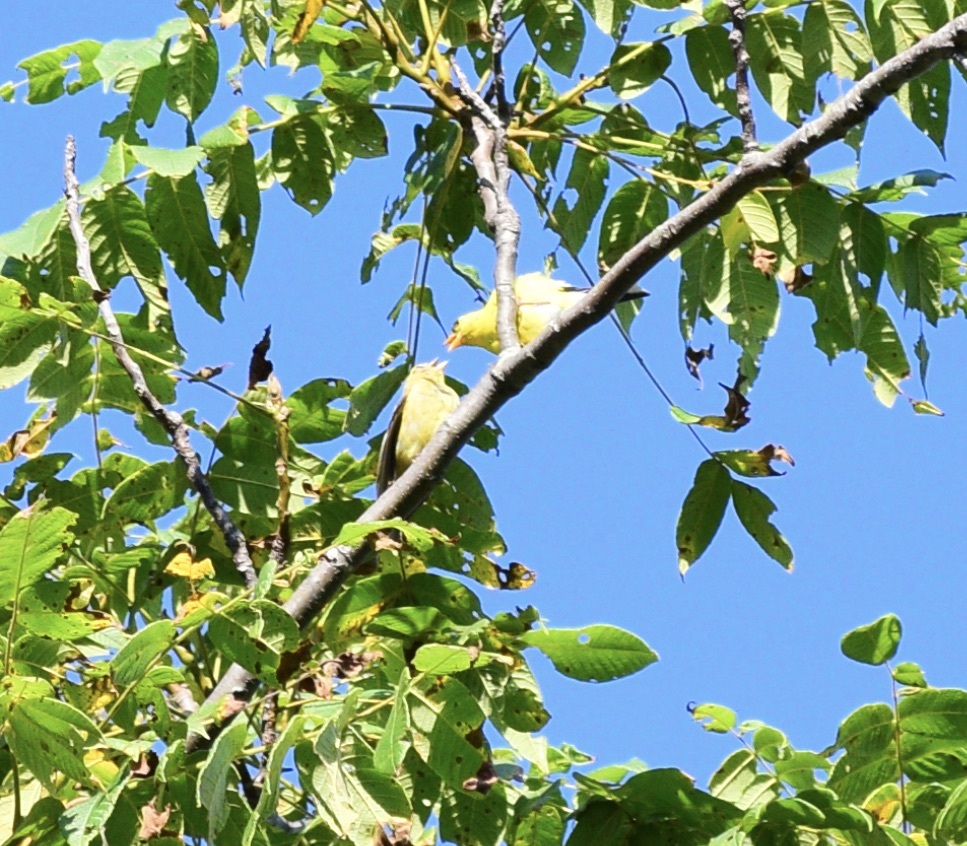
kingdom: Animalia
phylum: Chordata
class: Aves
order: Passeriformes
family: Fringillidae
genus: Spinus
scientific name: Spinus tristis
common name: American goldfinch
